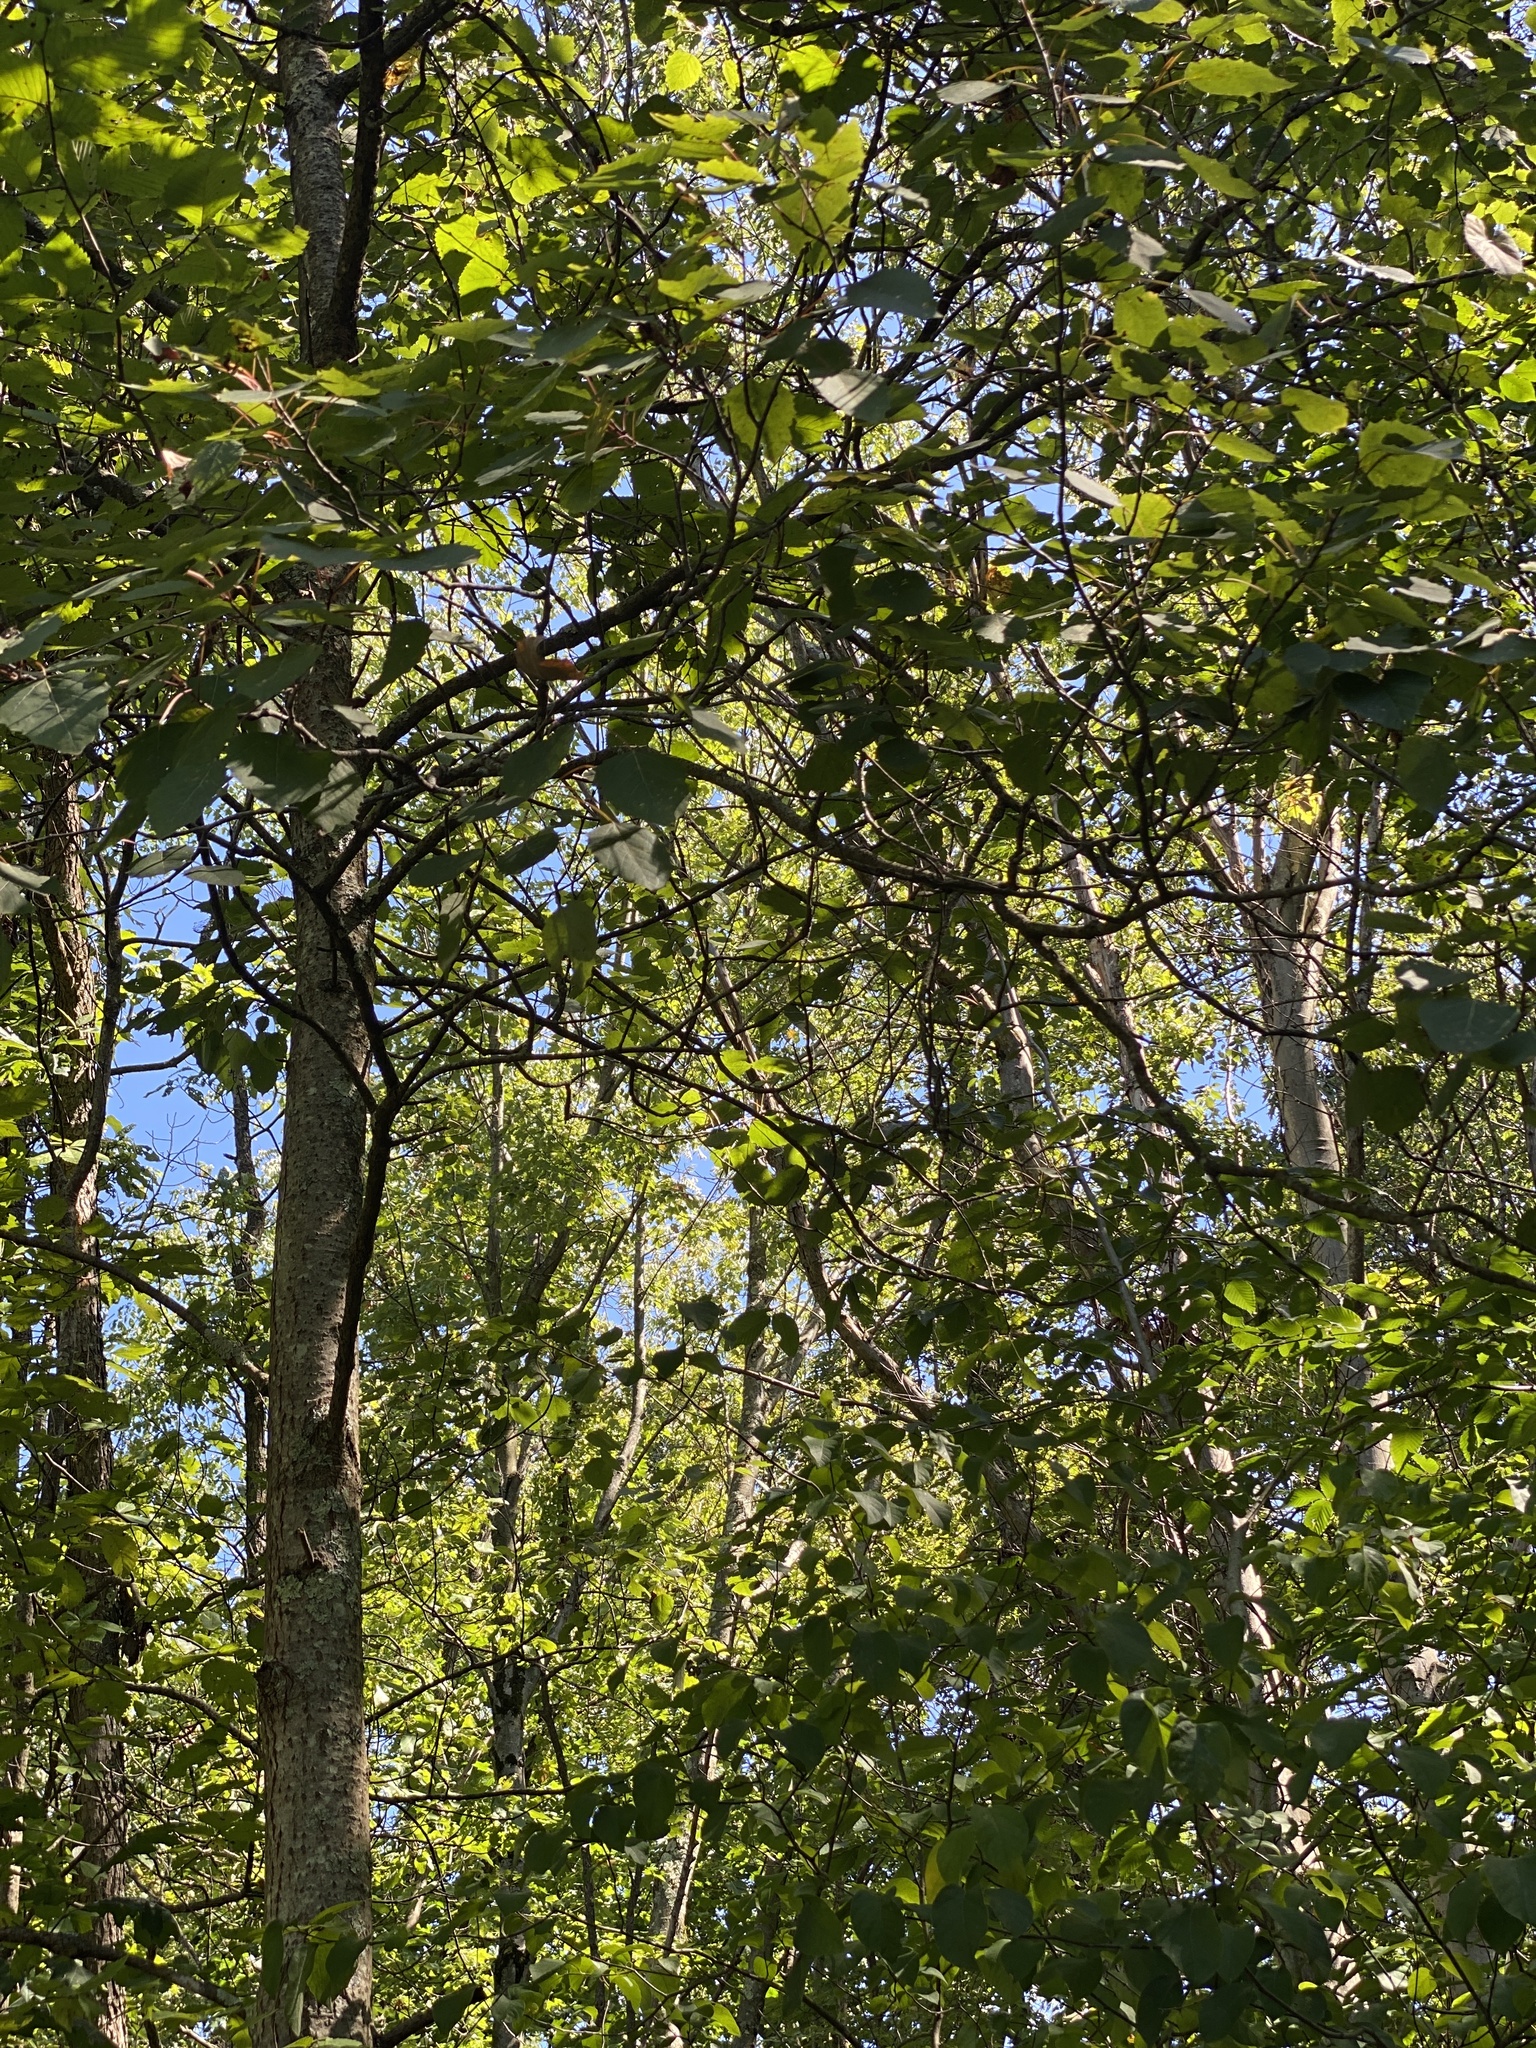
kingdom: Plantae
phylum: Tracheophyta
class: Magnoliopsida
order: Malpighiales
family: Salicaceae
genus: Populus
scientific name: Populus grandidentata
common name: Bigtooth aspen
